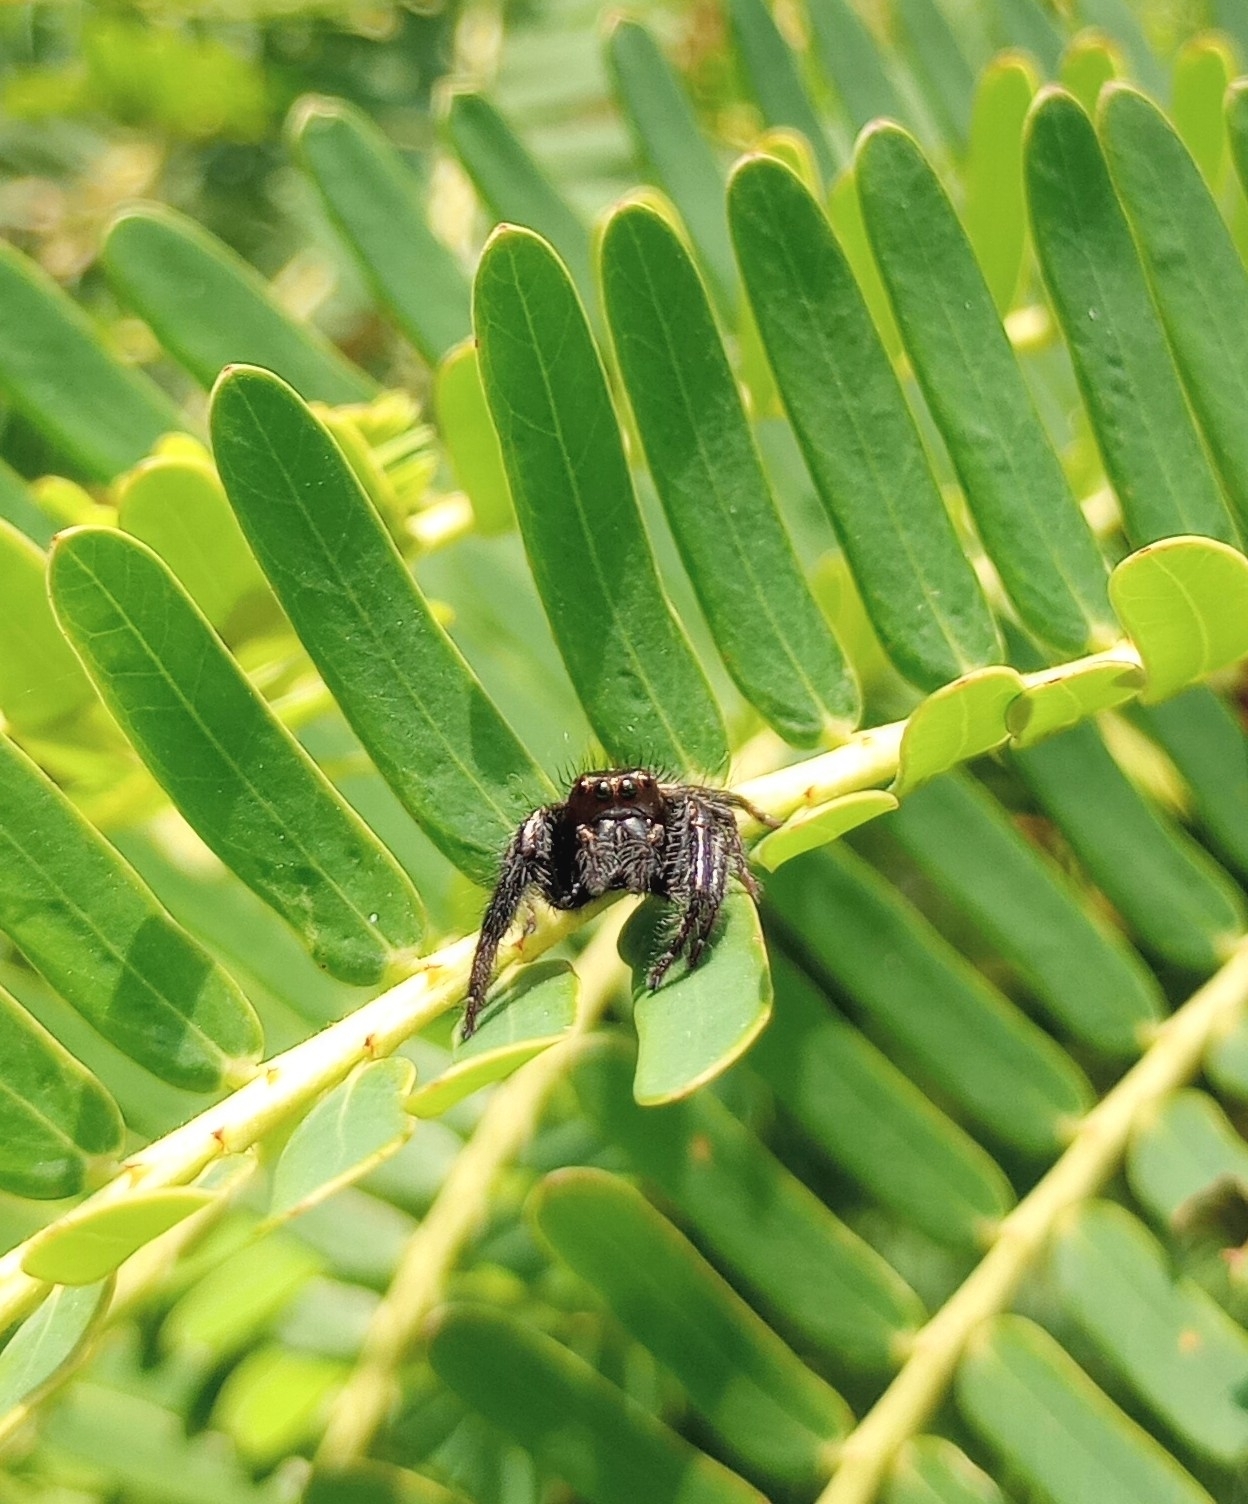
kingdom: Animalia
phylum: Arthropoda
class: Arachnida
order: Araneae
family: Salticidae
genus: Carrhotus
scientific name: Carrhotus viduus
